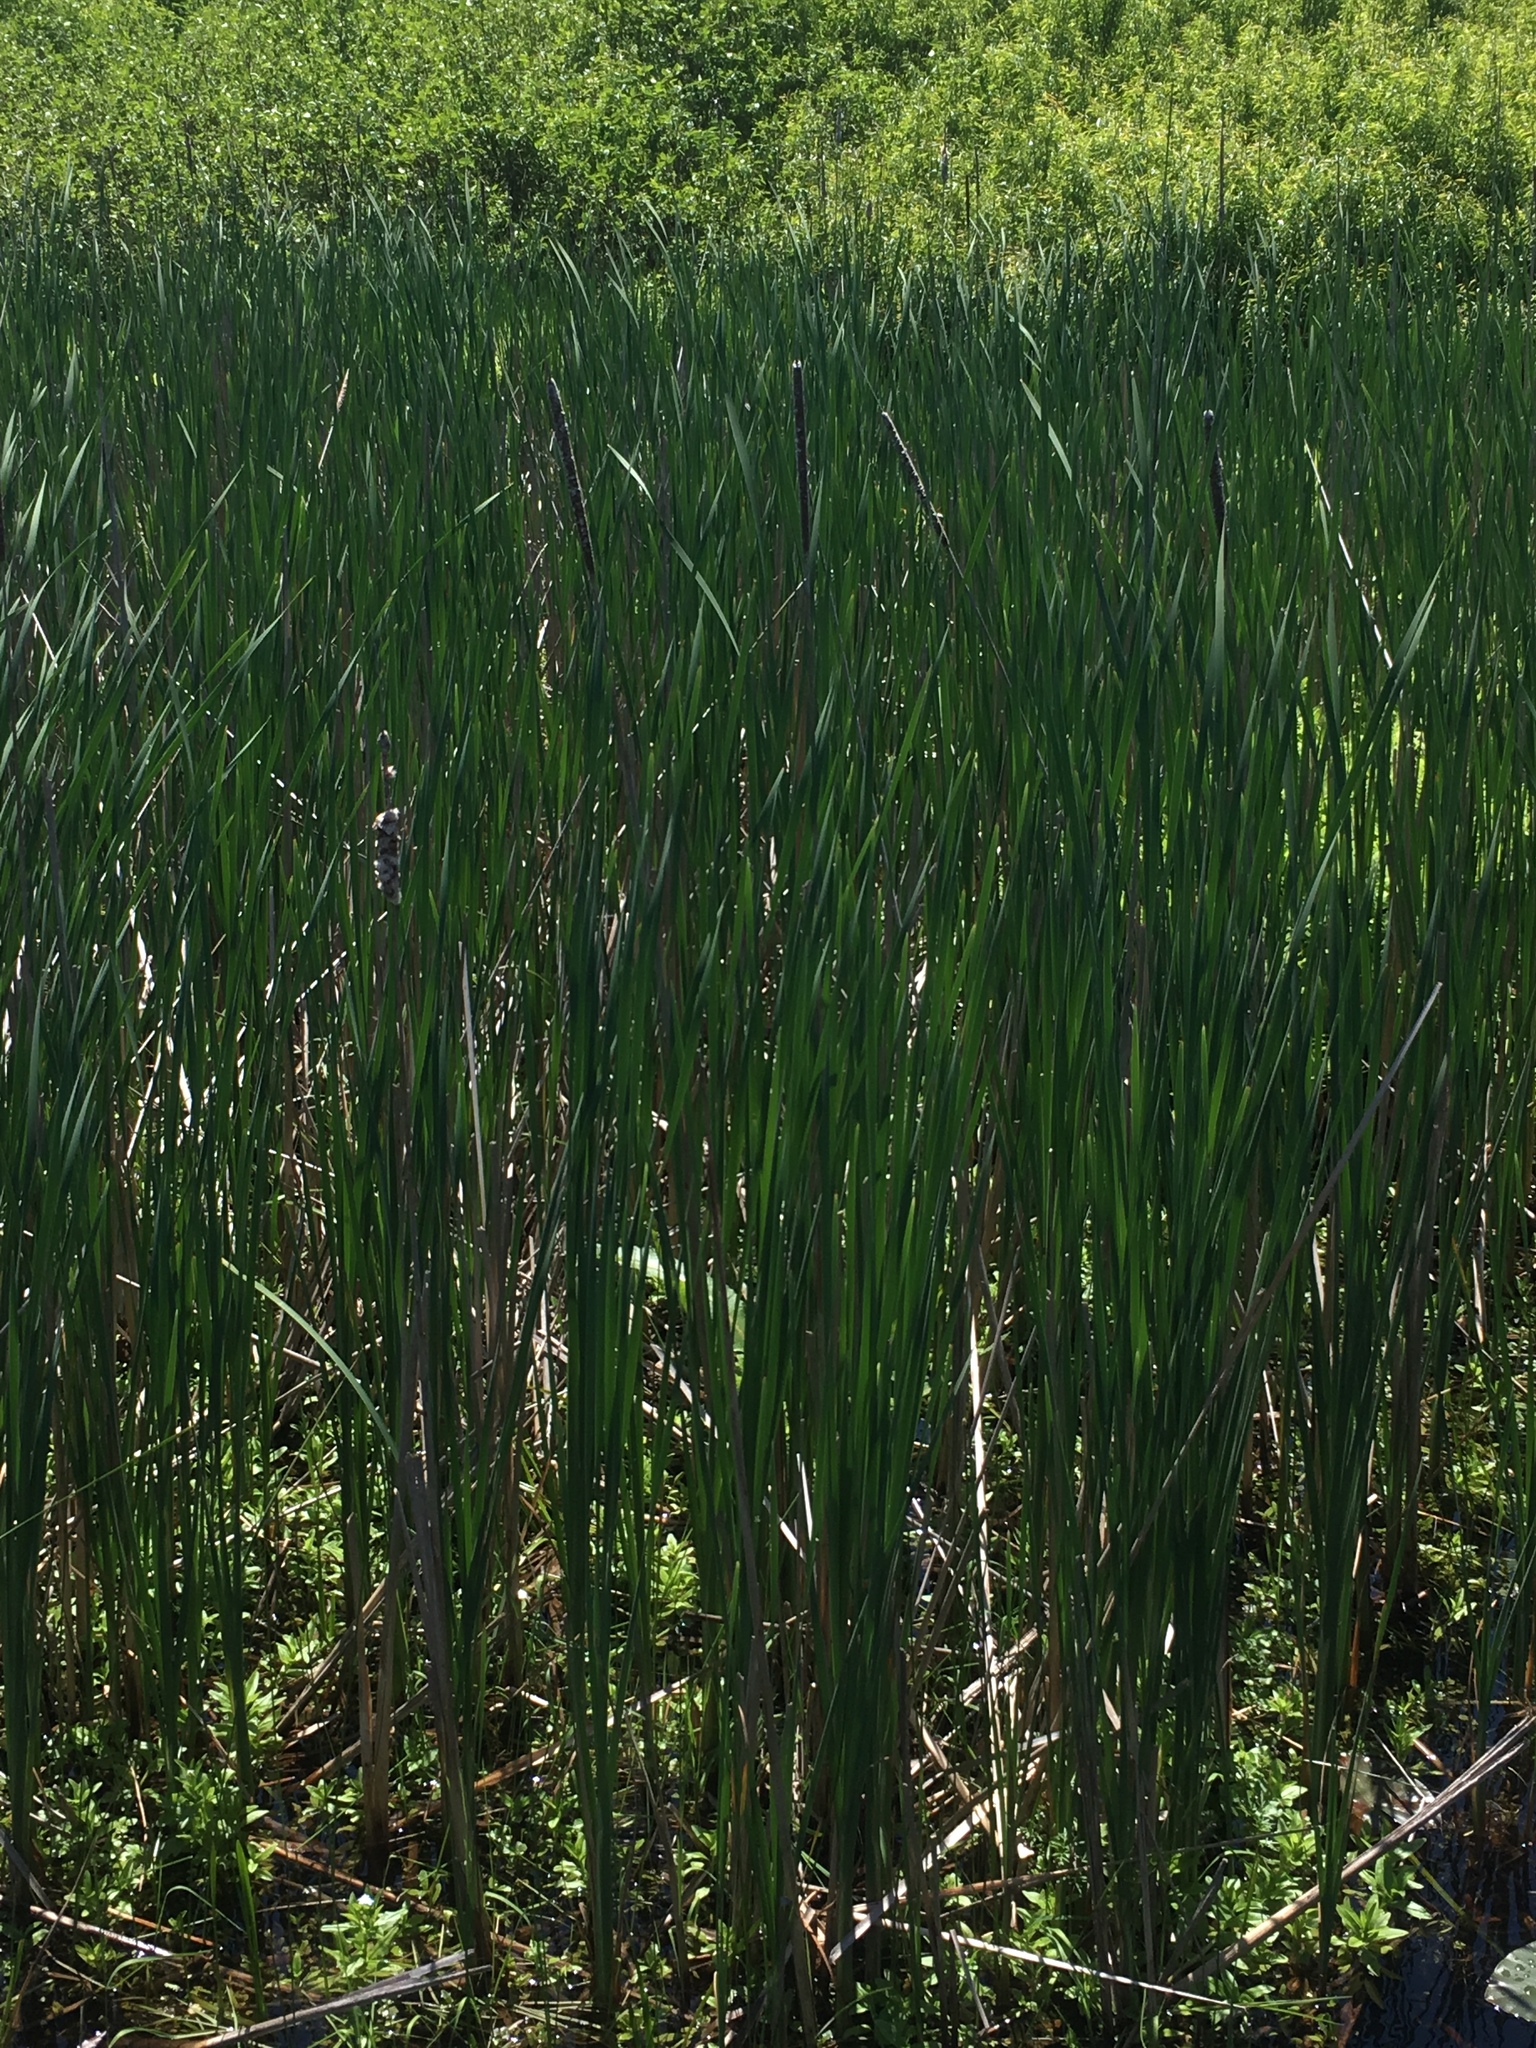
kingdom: Plantae
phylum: Tracheophyta
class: Liliopsida
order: Poales
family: Typhaceae
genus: Typha
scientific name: Typha angustifolia
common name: Lesser bulrush
